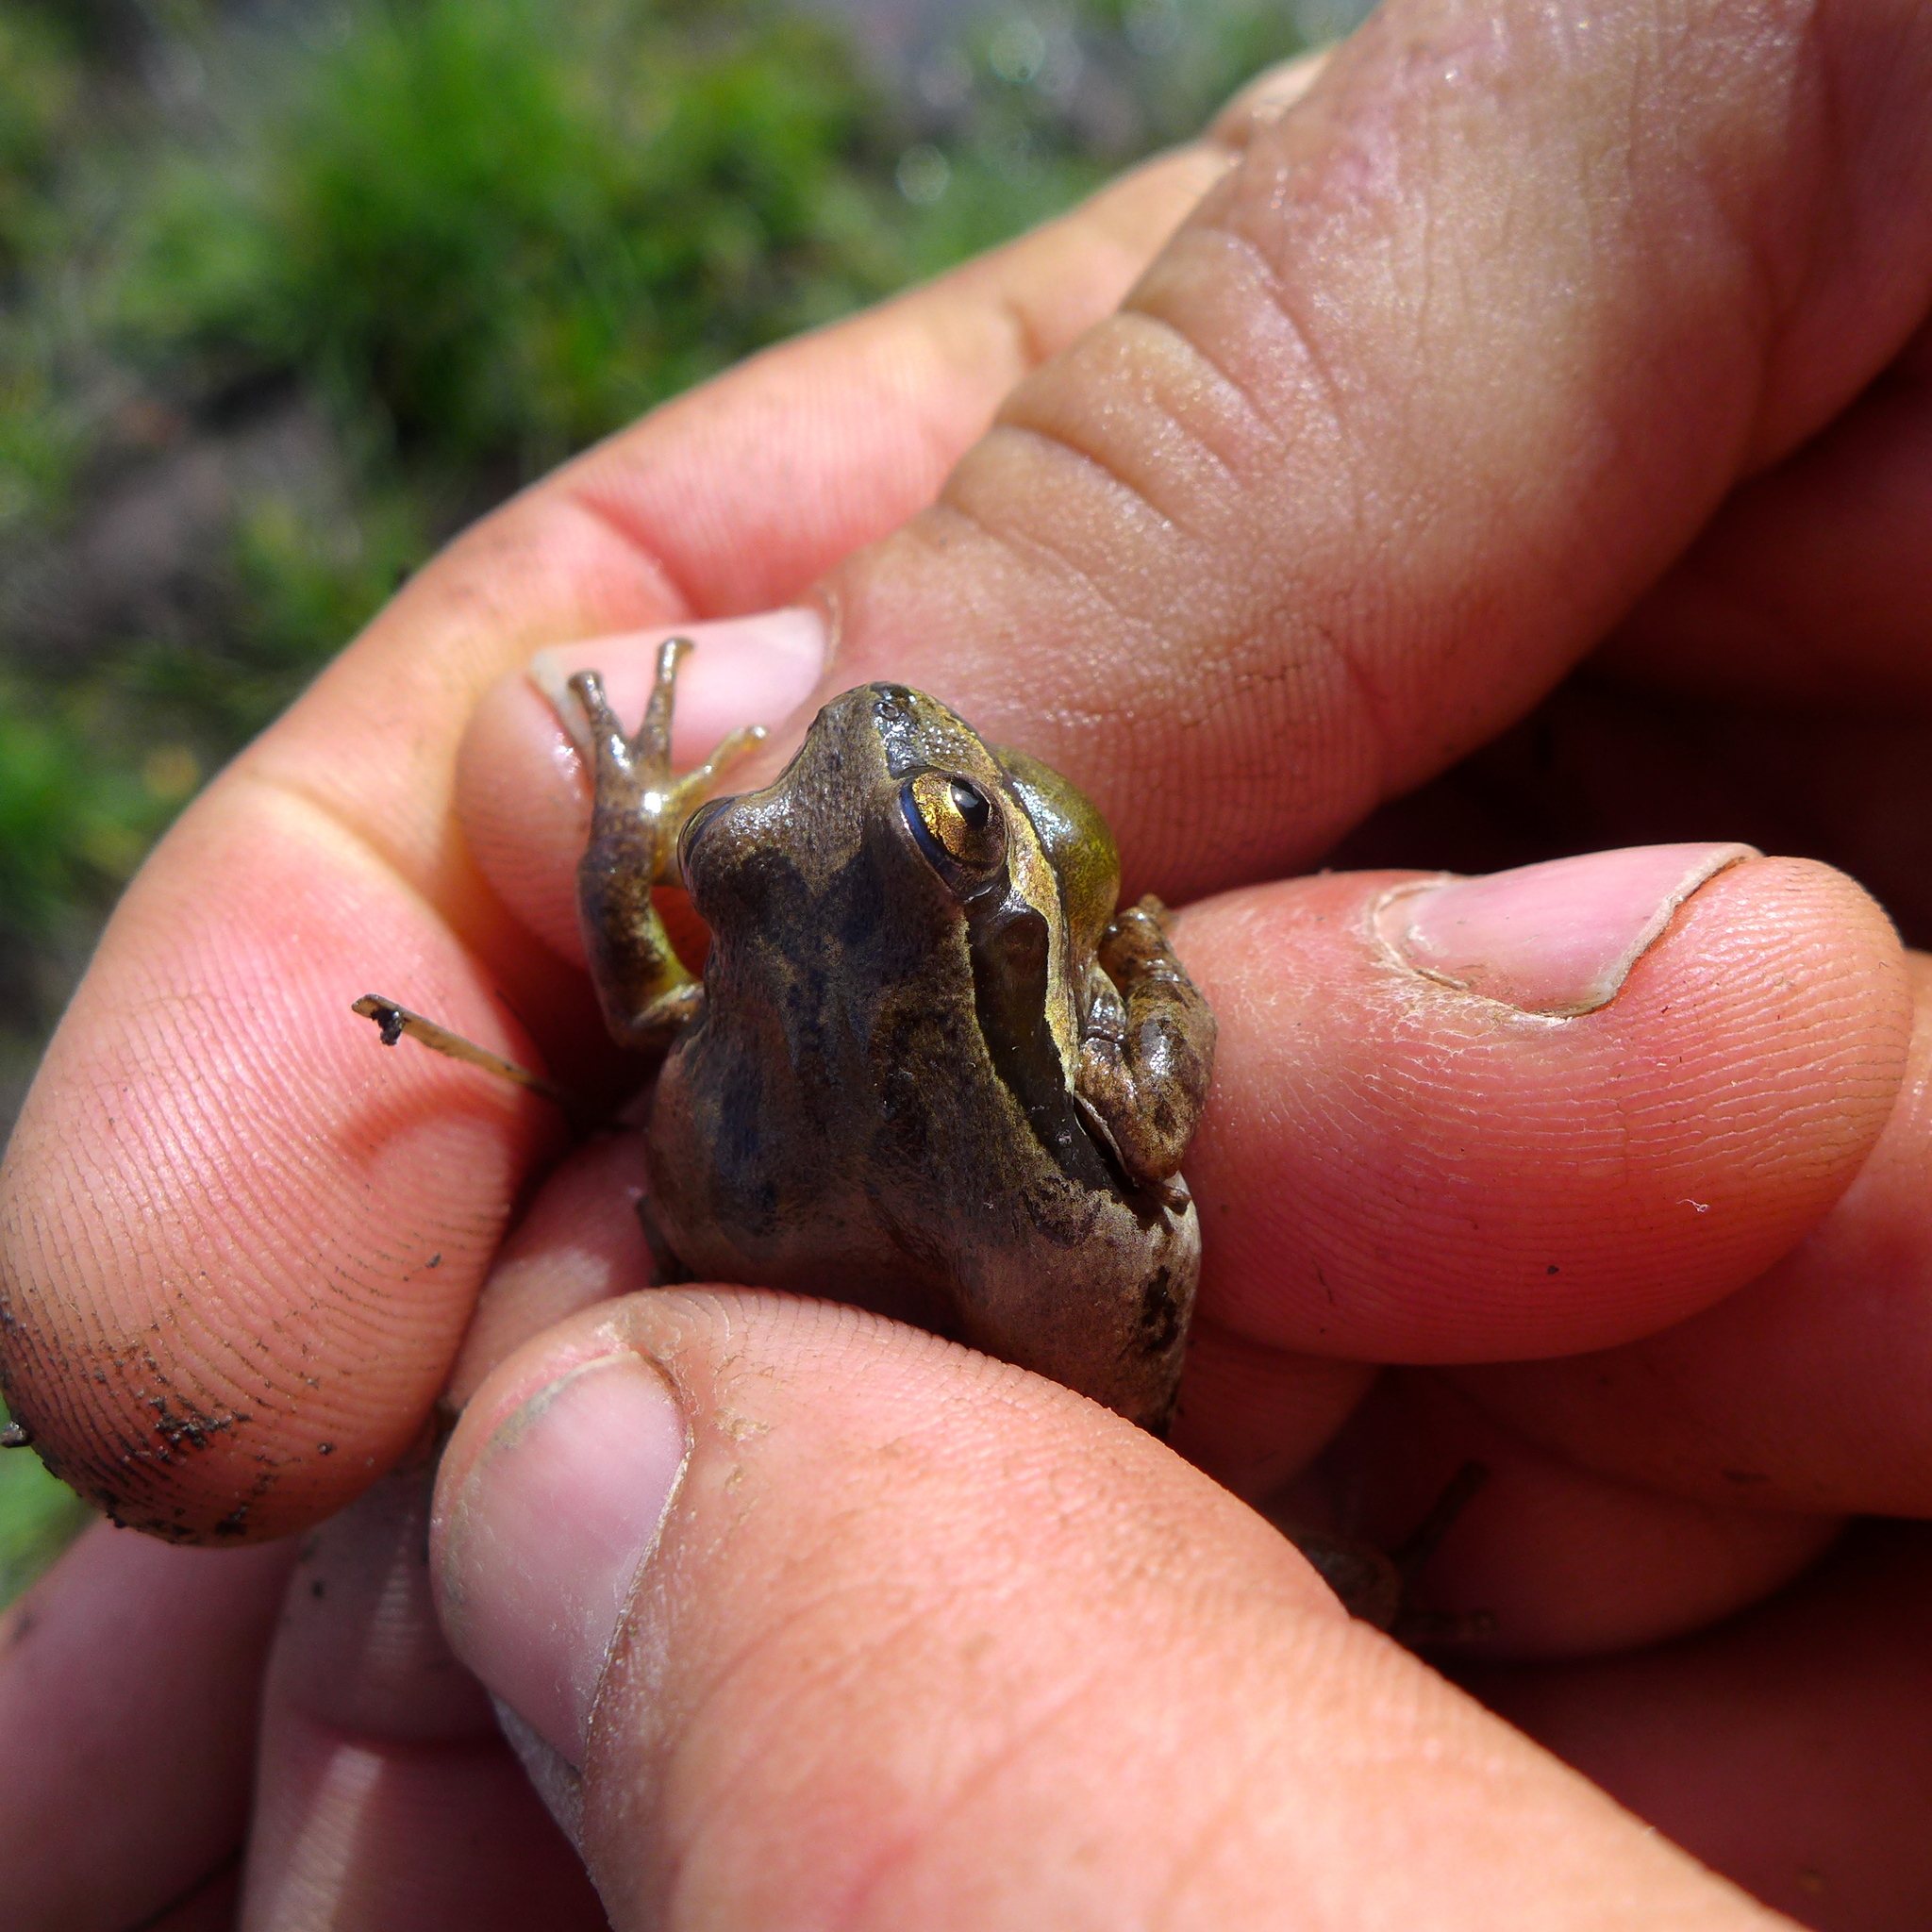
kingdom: Animalia
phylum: Chordata
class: Amphibia
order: Anura
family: Hylidae
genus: Pseudacris
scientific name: Pseudacris regilla
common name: Pacific chorus frog
